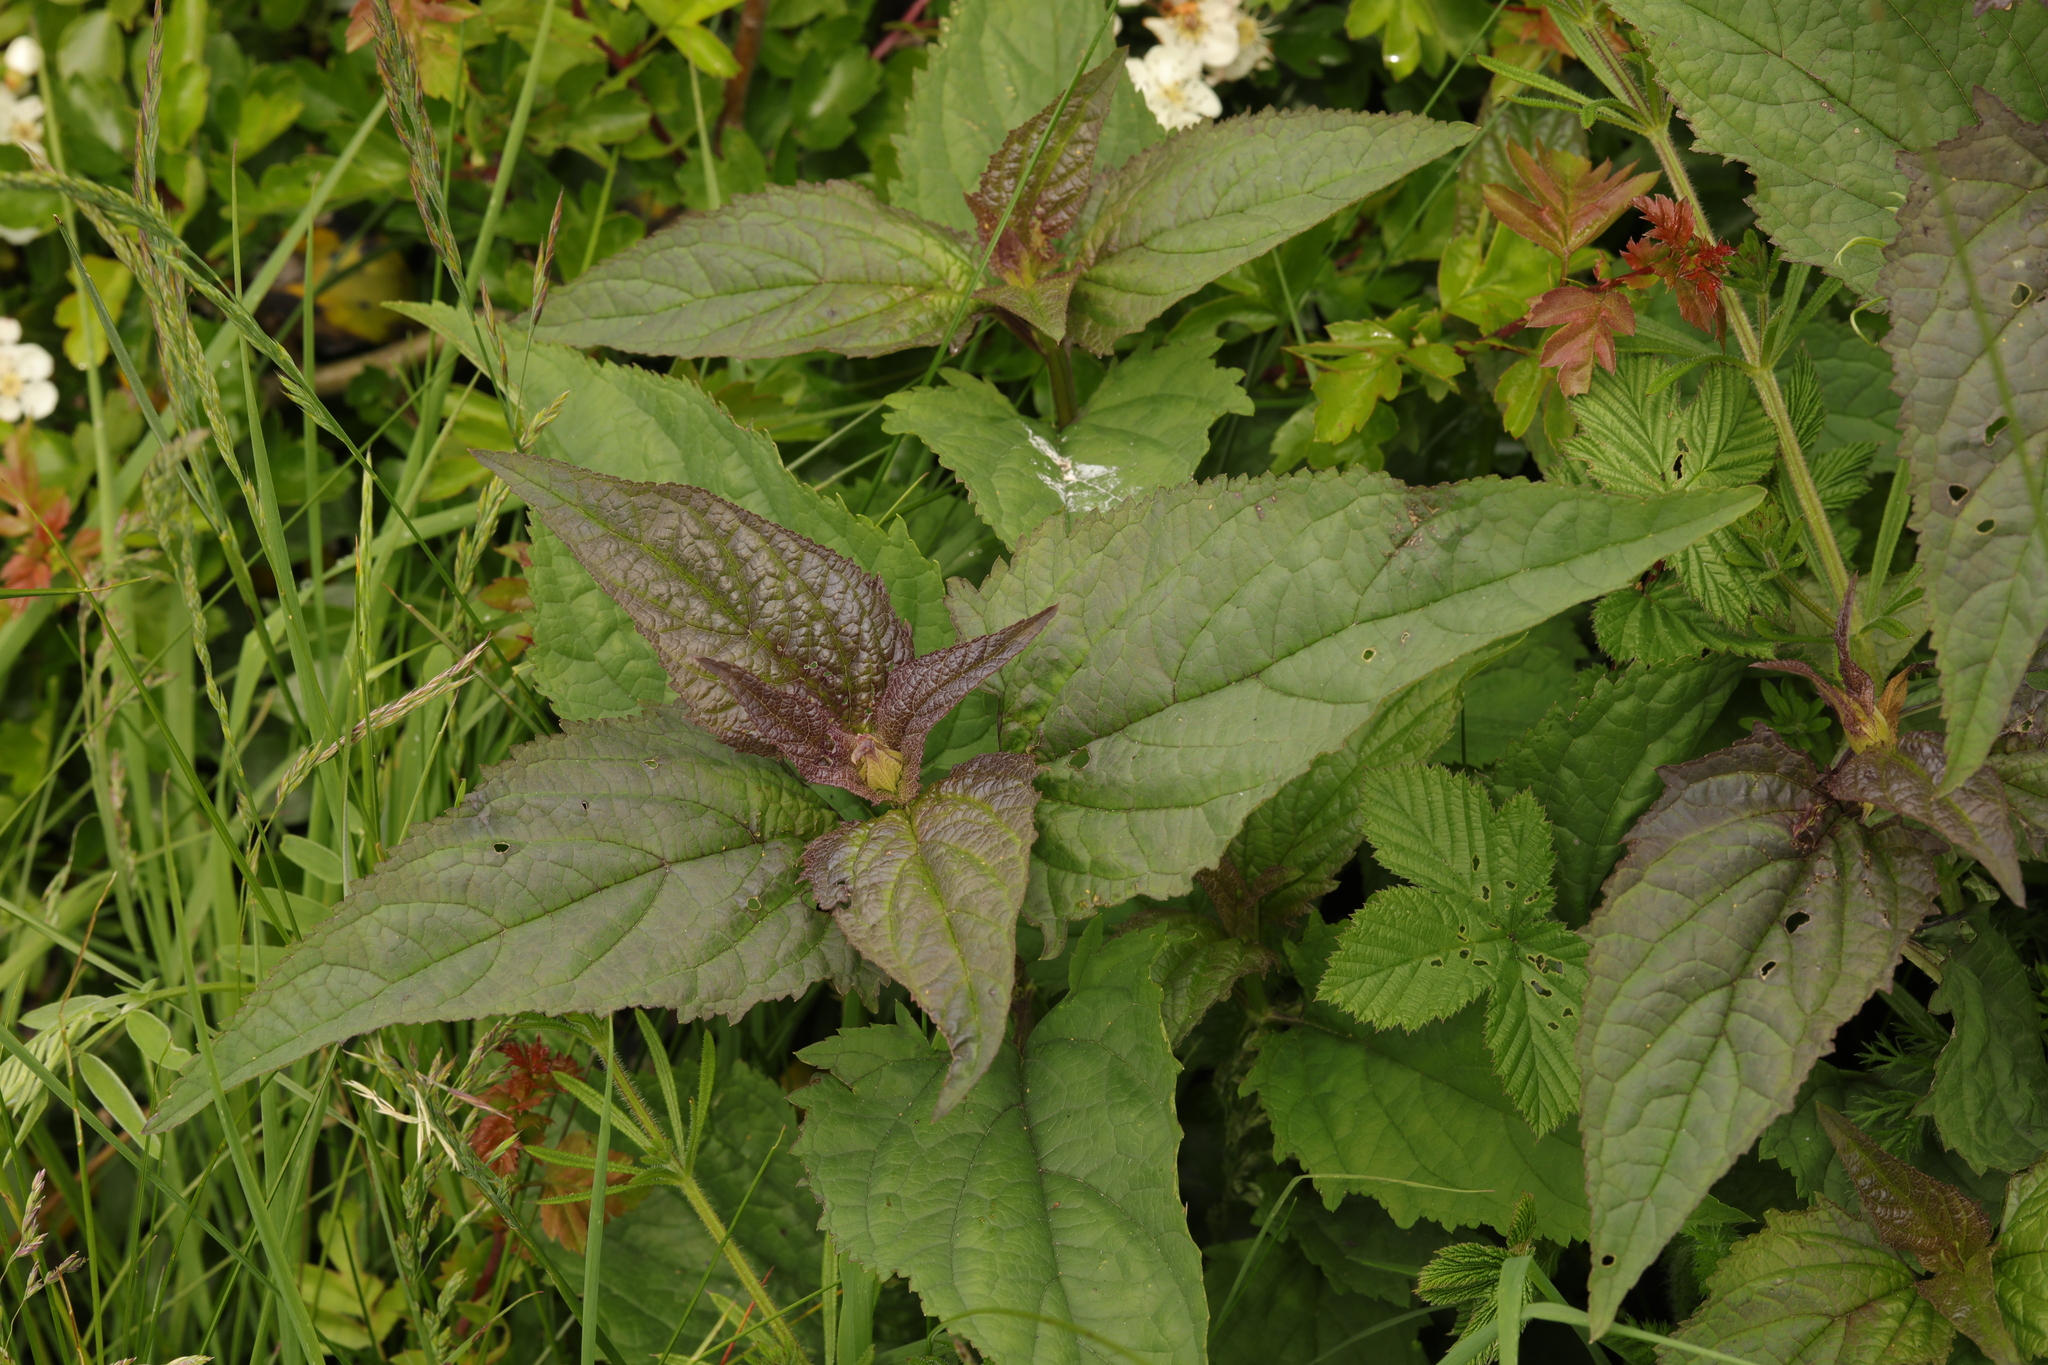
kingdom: Plantae
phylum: Tracheophyta
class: Magnoliopsida
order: Lamiales
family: Scrophulariaceae
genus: Scrophularia
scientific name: Scrophularia nodosa
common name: Common figwort
